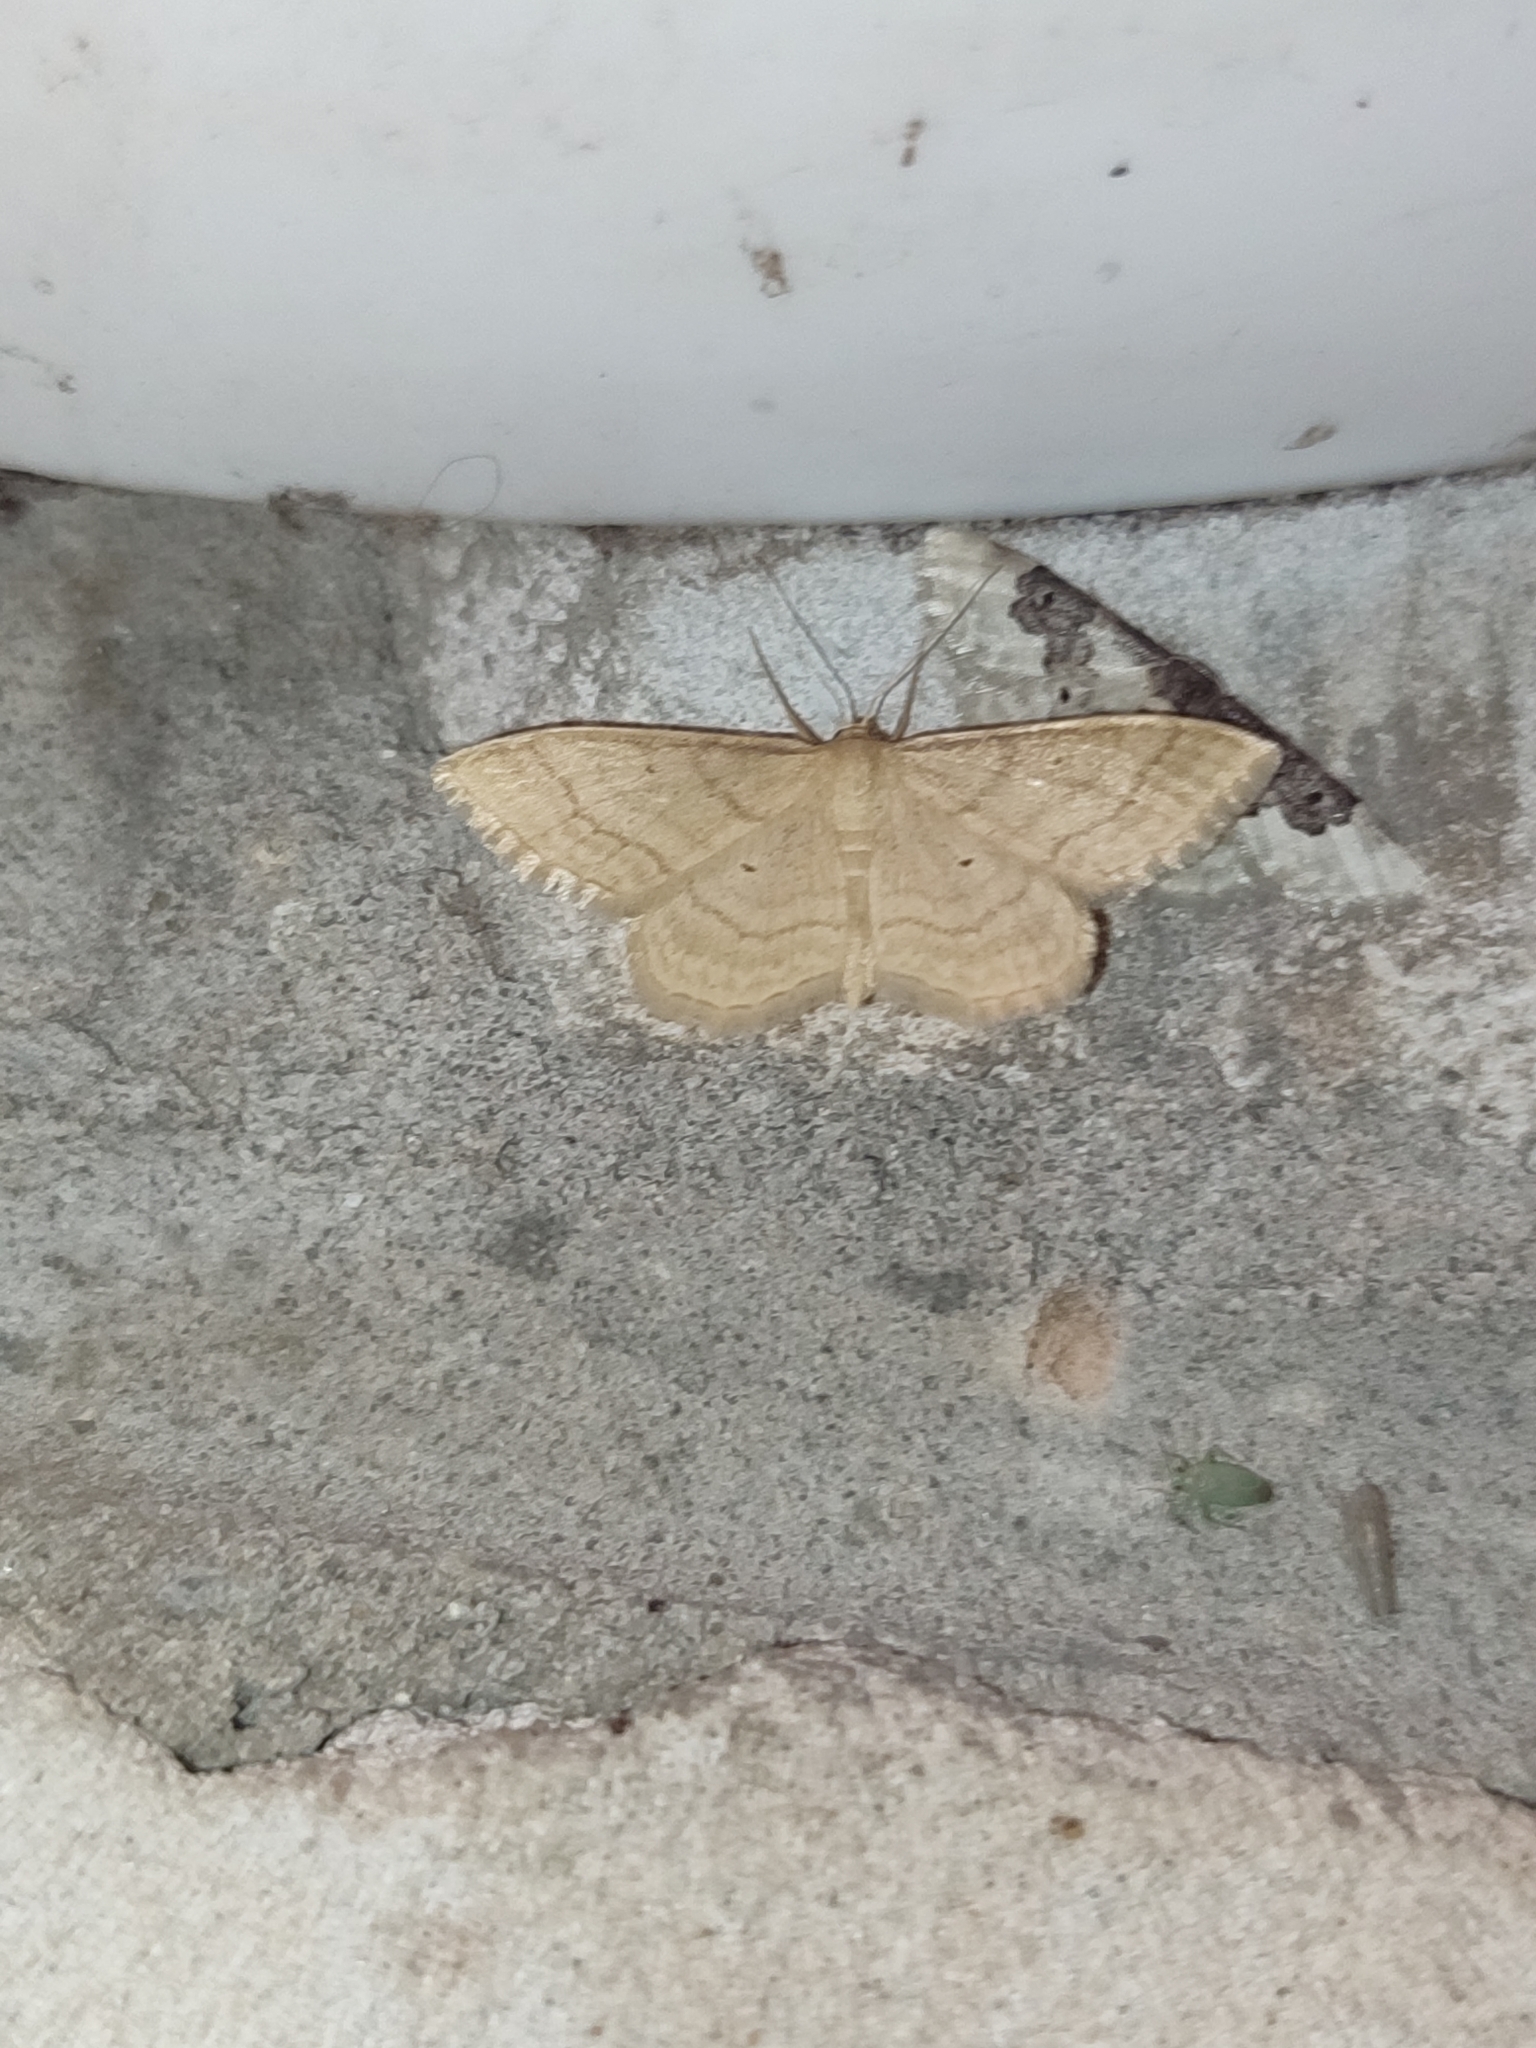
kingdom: Animalia
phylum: Arthropoda
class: Insecta
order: Lepidoptera
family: Geometridae
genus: Idaea
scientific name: Idaea rufaria
